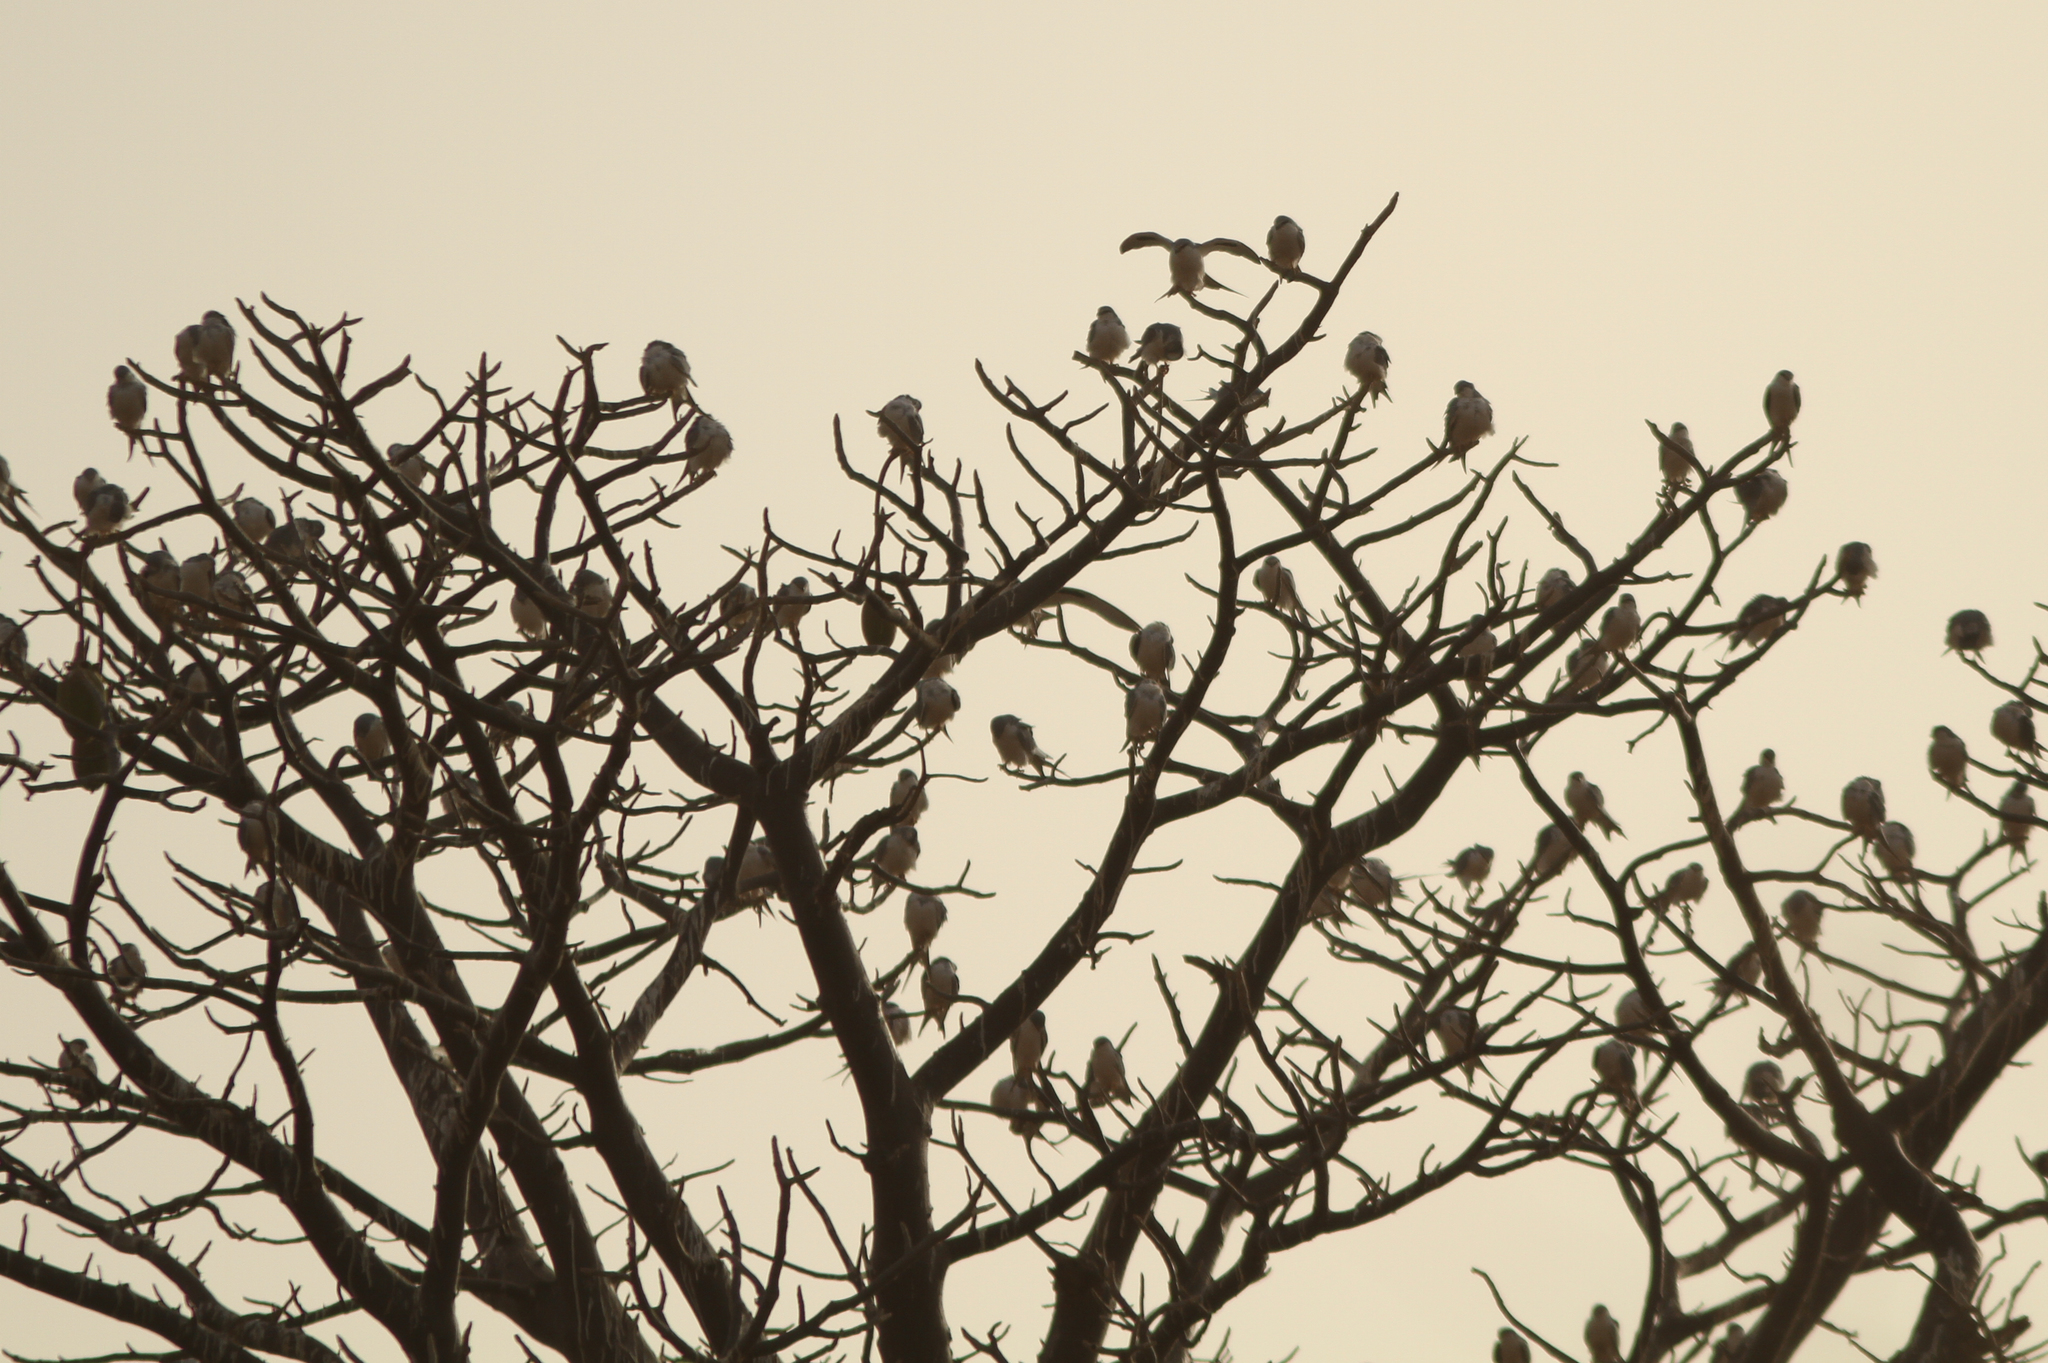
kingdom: Animalia
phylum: Chordata
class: Aves
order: Accipitriformes
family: Accipitridae
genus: Chelictinia
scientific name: Chelictinia riocourii
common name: Scissor-tailed kite
